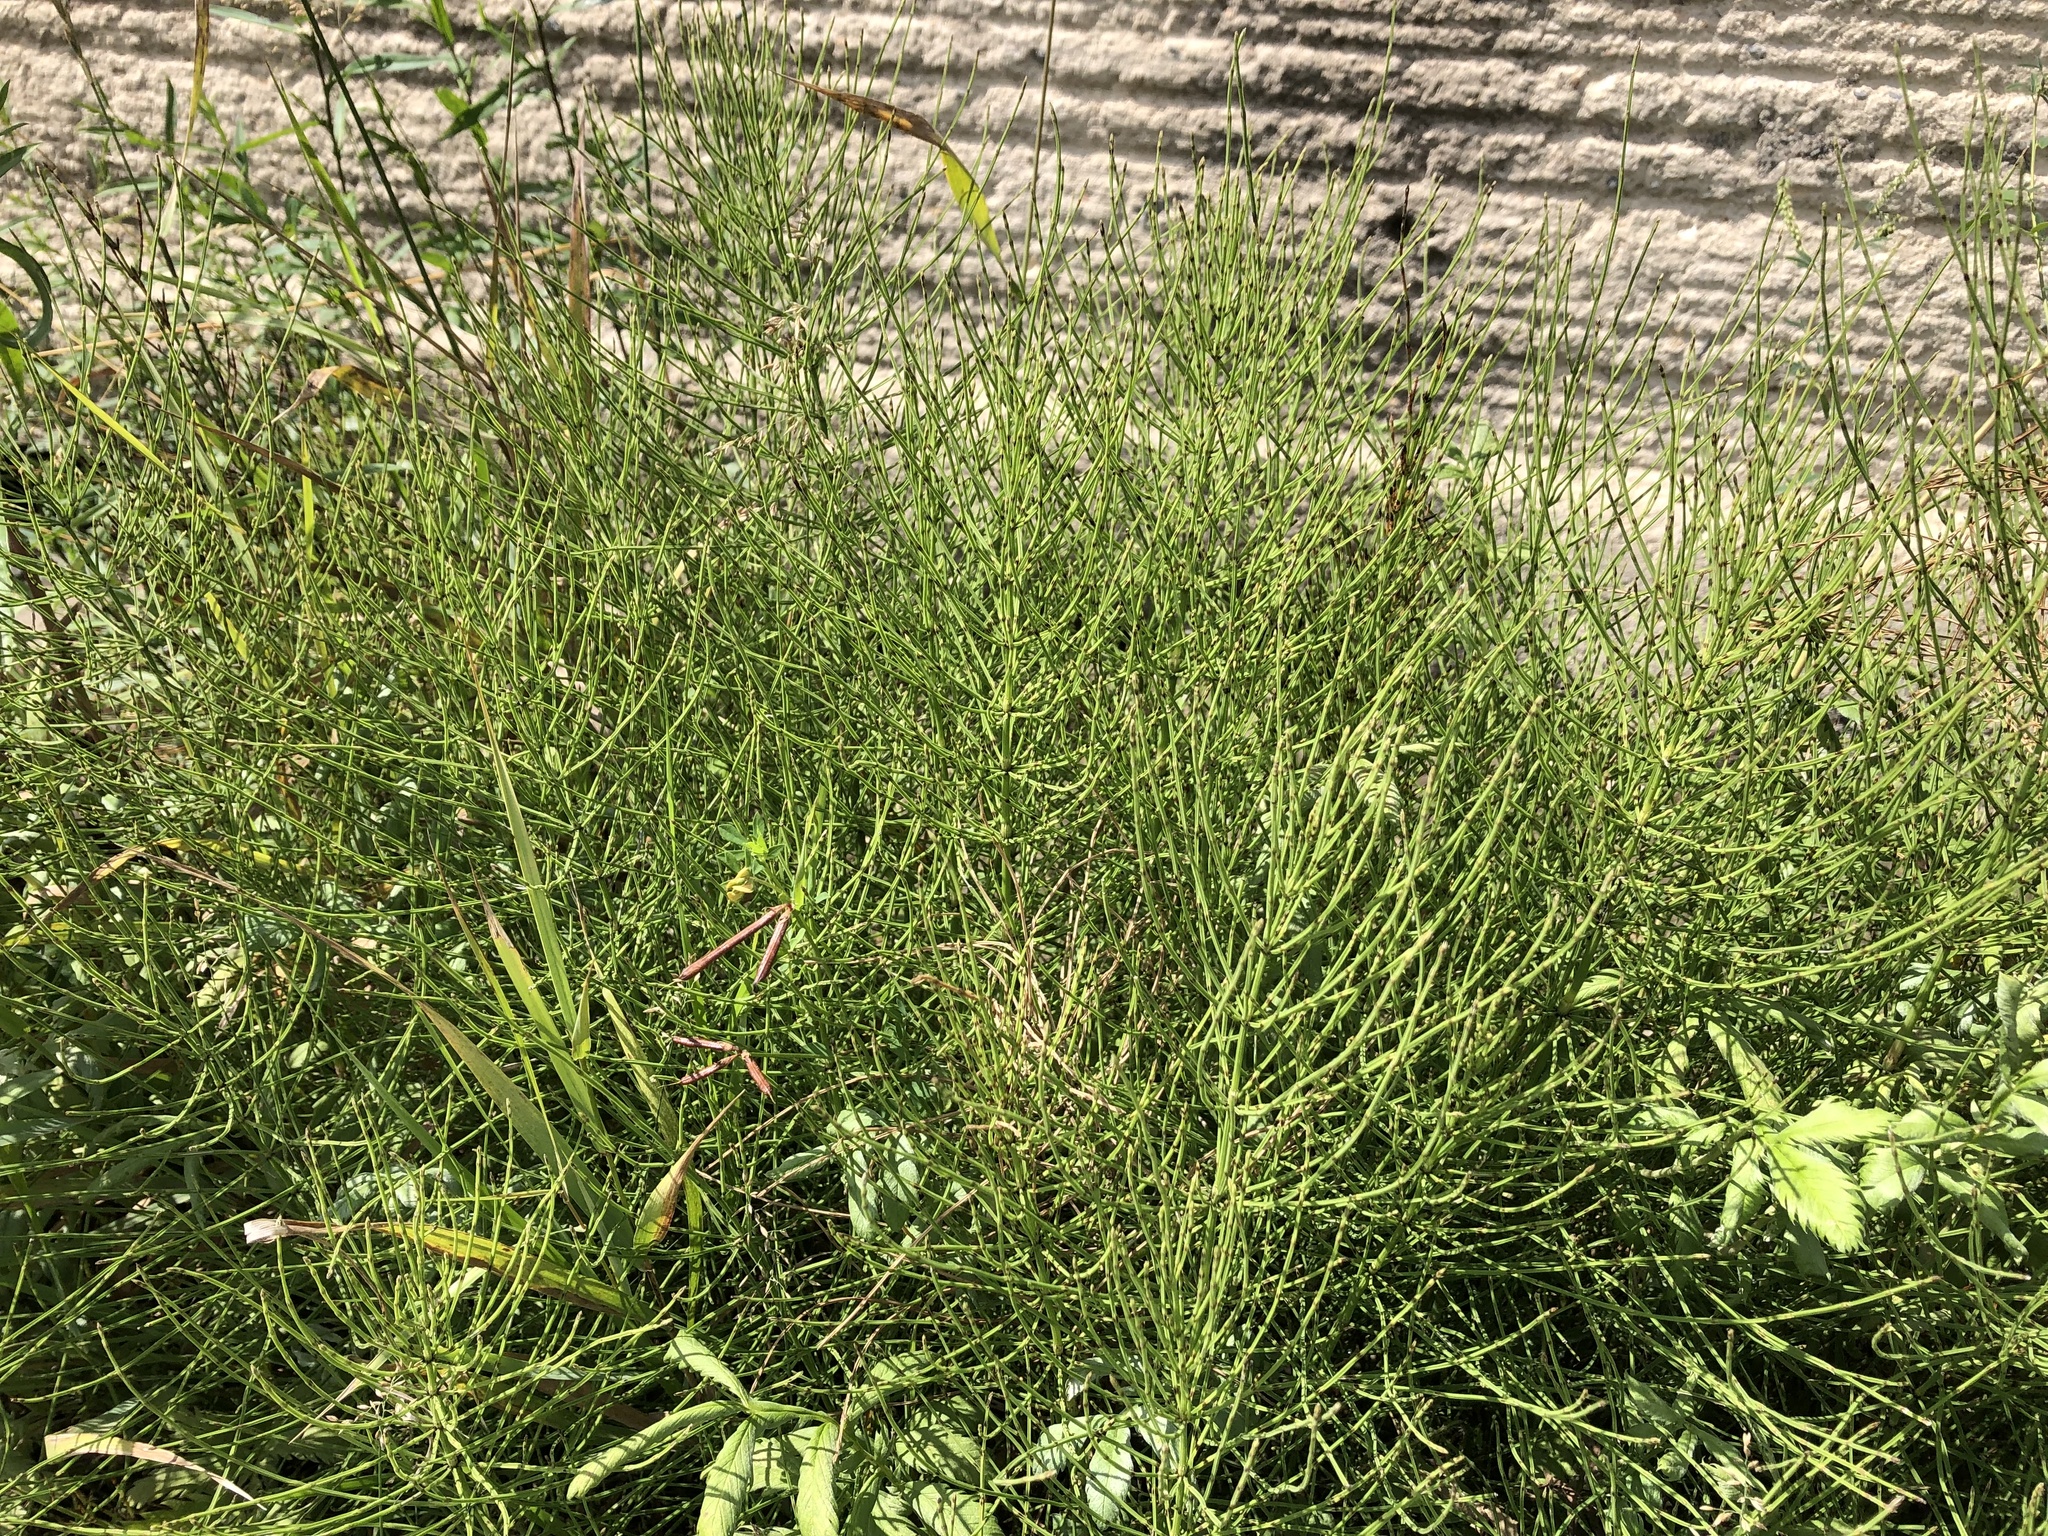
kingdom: Plantae
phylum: Tracheophyta
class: Polypodiopsida
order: Equisetales
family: Equisetaceae
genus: Equisetum
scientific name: Equisetum arvense
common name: Field horsetail
